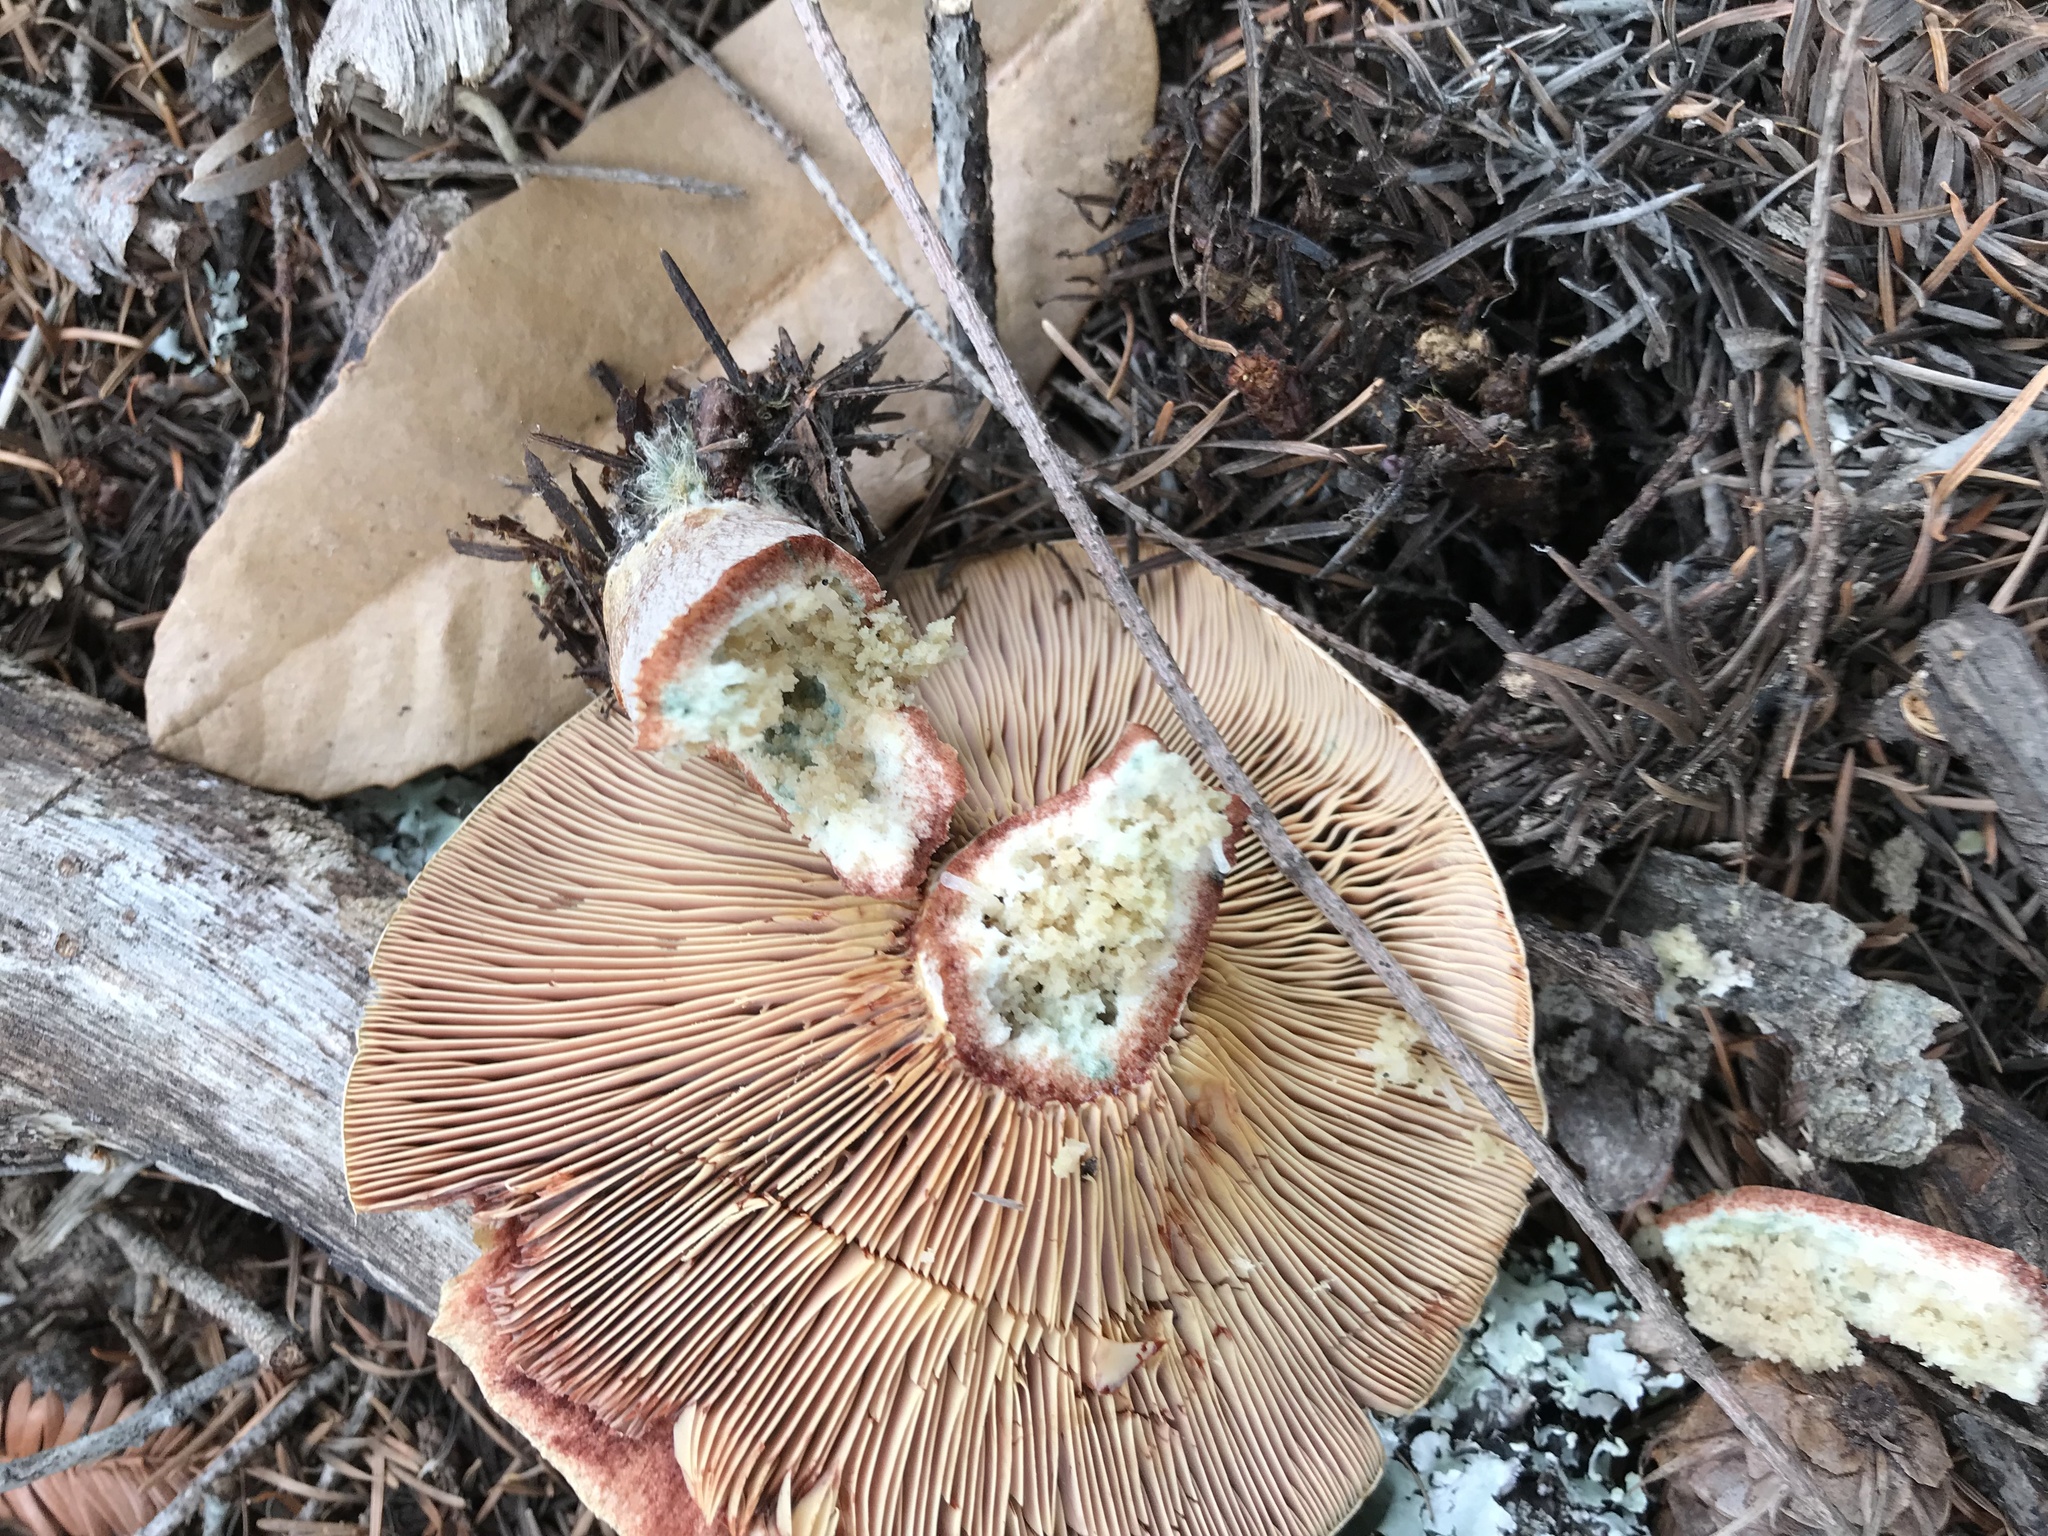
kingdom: Fungi
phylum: Basidiomycota
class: Agaricomycetes
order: Russulales
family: Russulaceae
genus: Lactarius
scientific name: Lactarius rubrilacteus
